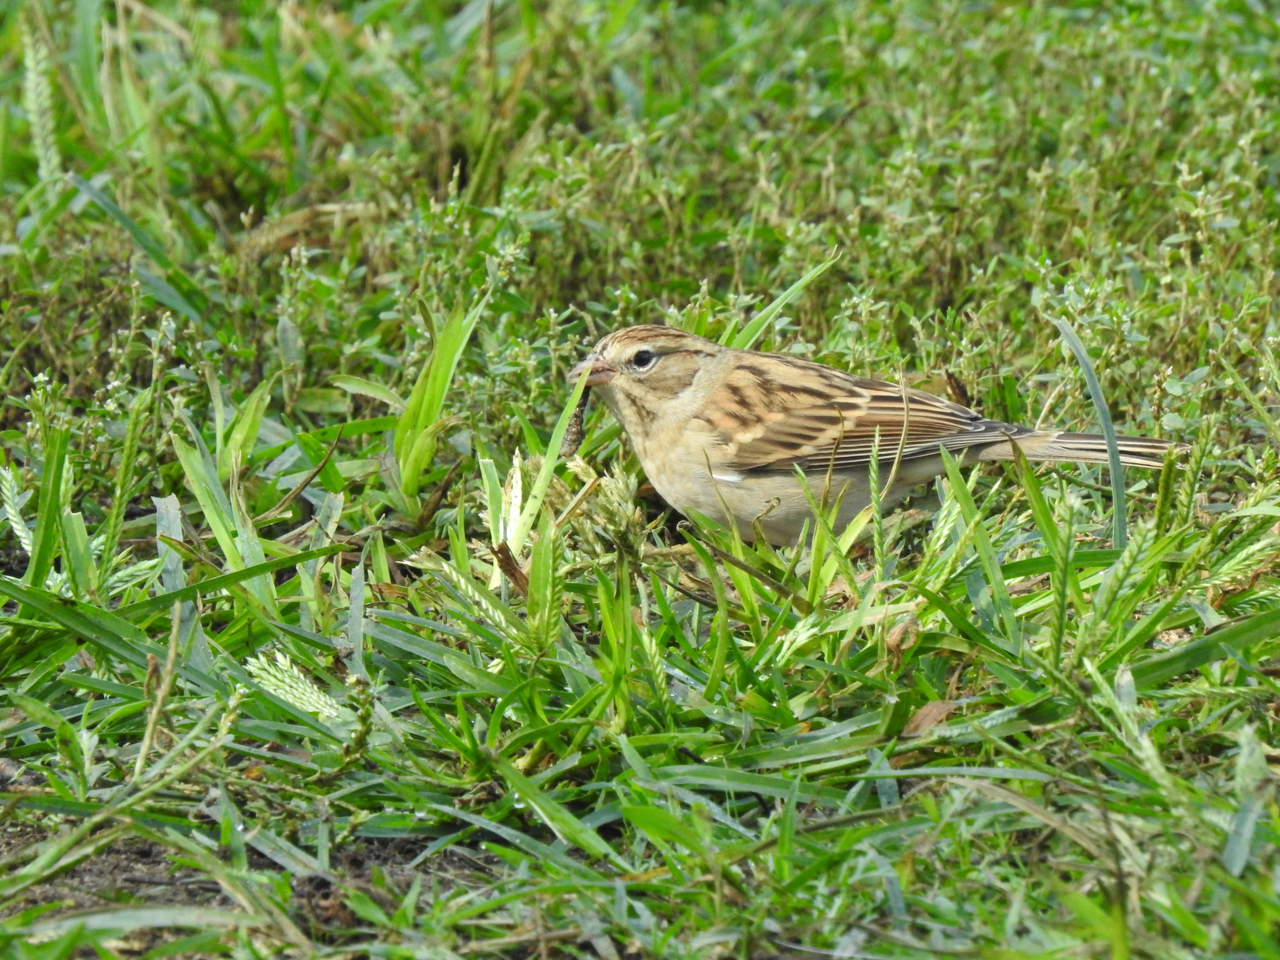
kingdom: Animalia
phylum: Chordata
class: Aves
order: Passeriformes
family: Passerellidae
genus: Spizella
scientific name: Spizella passerina
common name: Chipping sparrow
